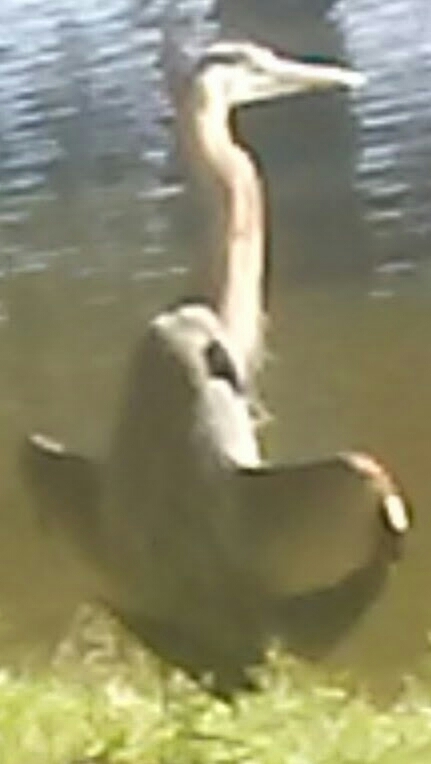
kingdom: Animalia
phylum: Chordata
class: Aves
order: Pelecaniformes
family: Ardeidae
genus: Ardea
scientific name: Ardea herodias
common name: Great blue heron
